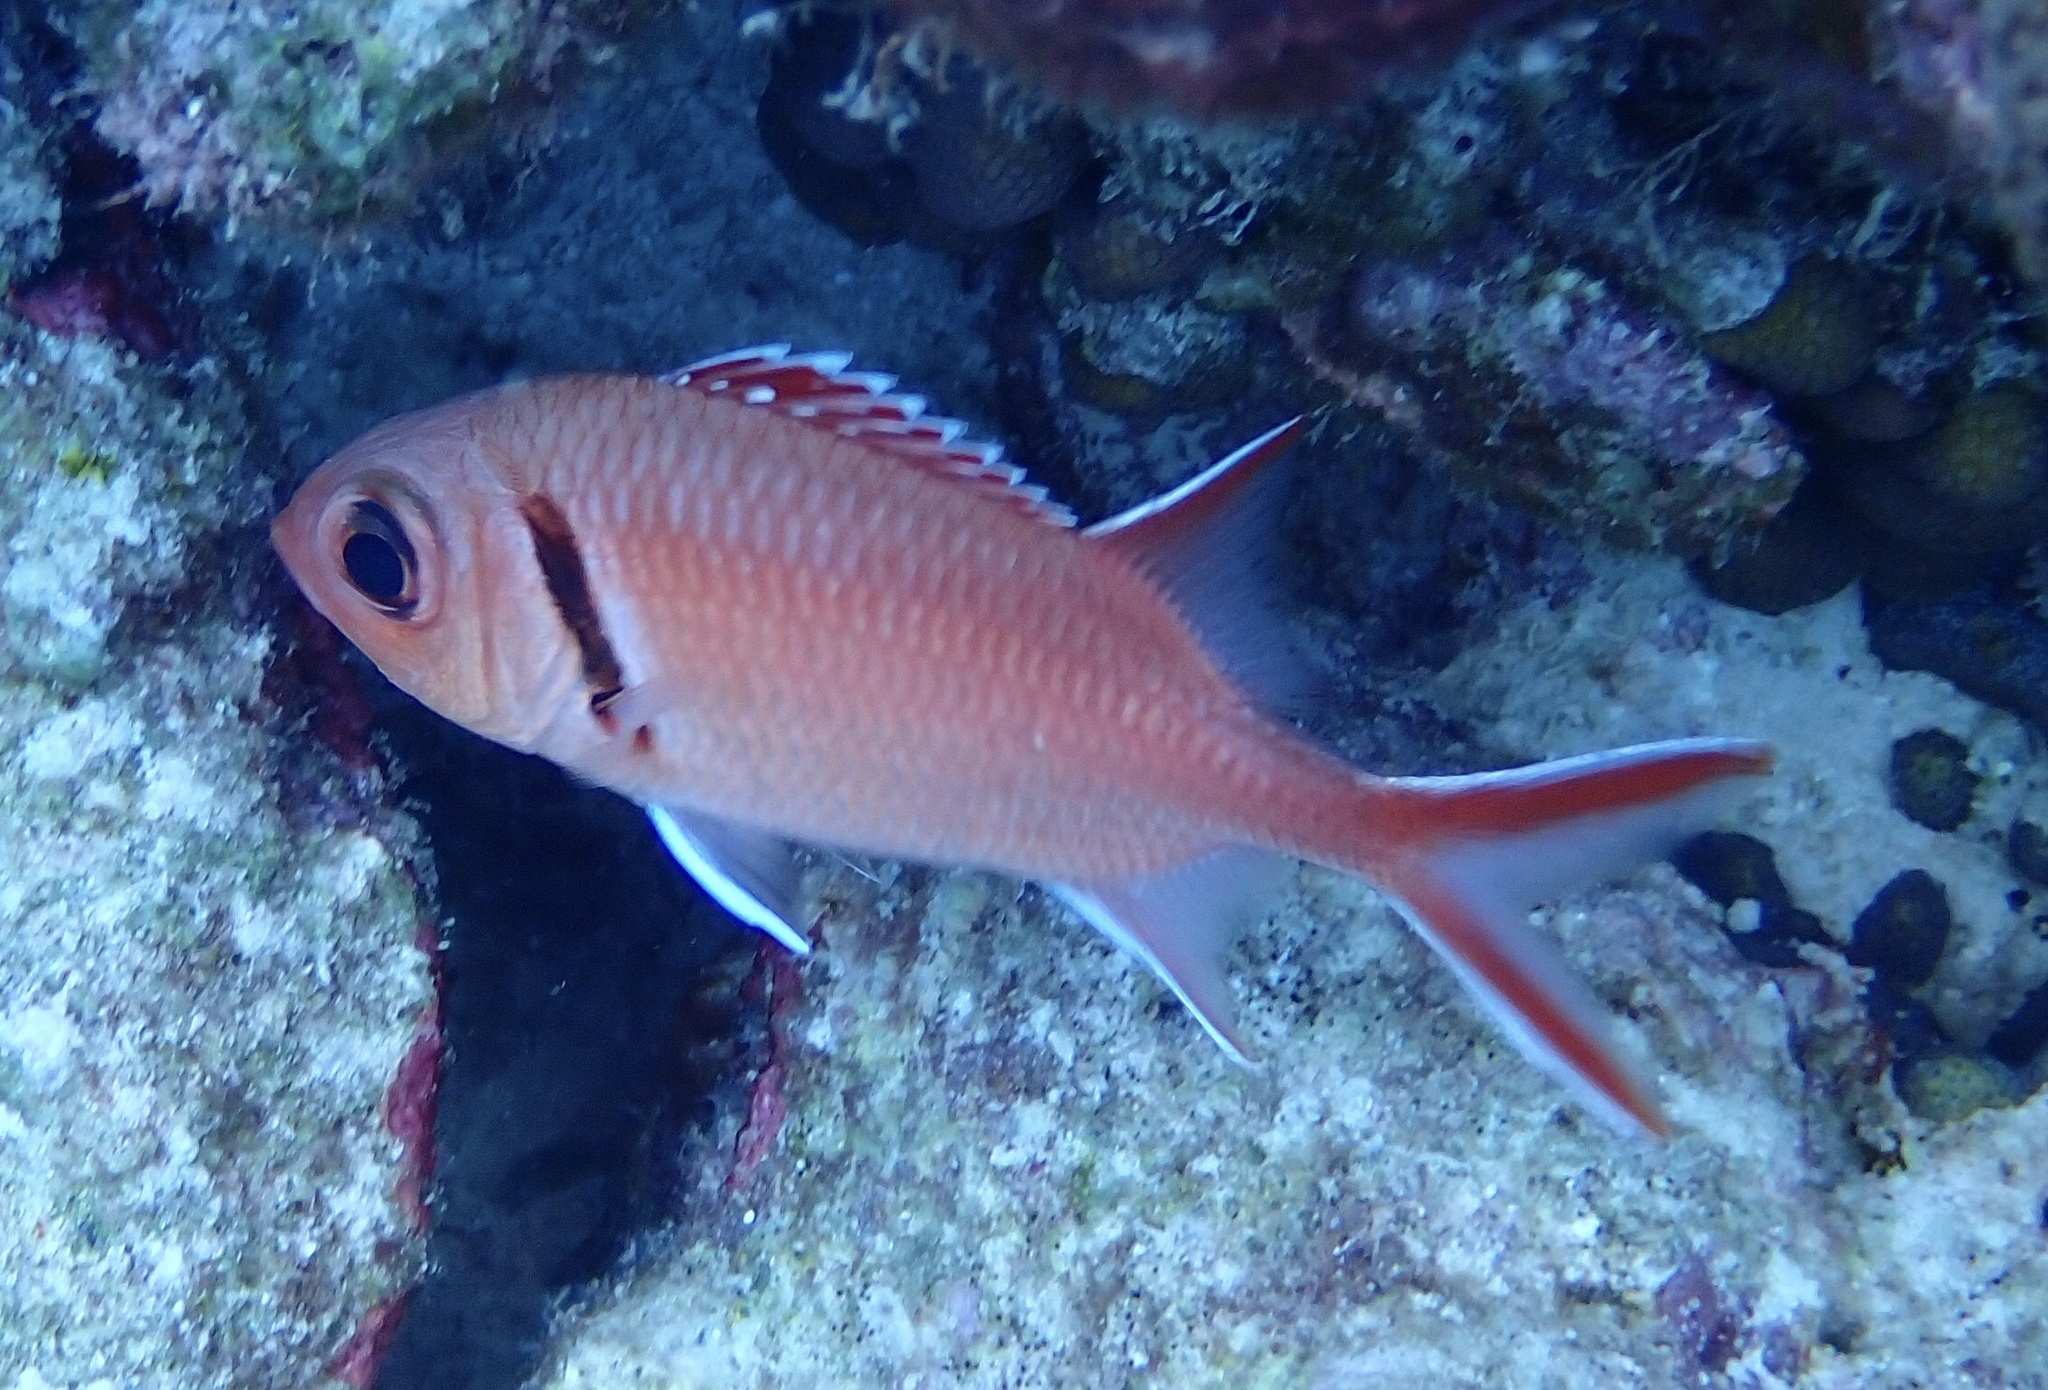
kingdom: Animalia
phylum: Chordata
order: Beryciformes
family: Holocentridae
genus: Myripristis
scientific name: Myripristis jacobus
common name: Blackbar soldierfish
